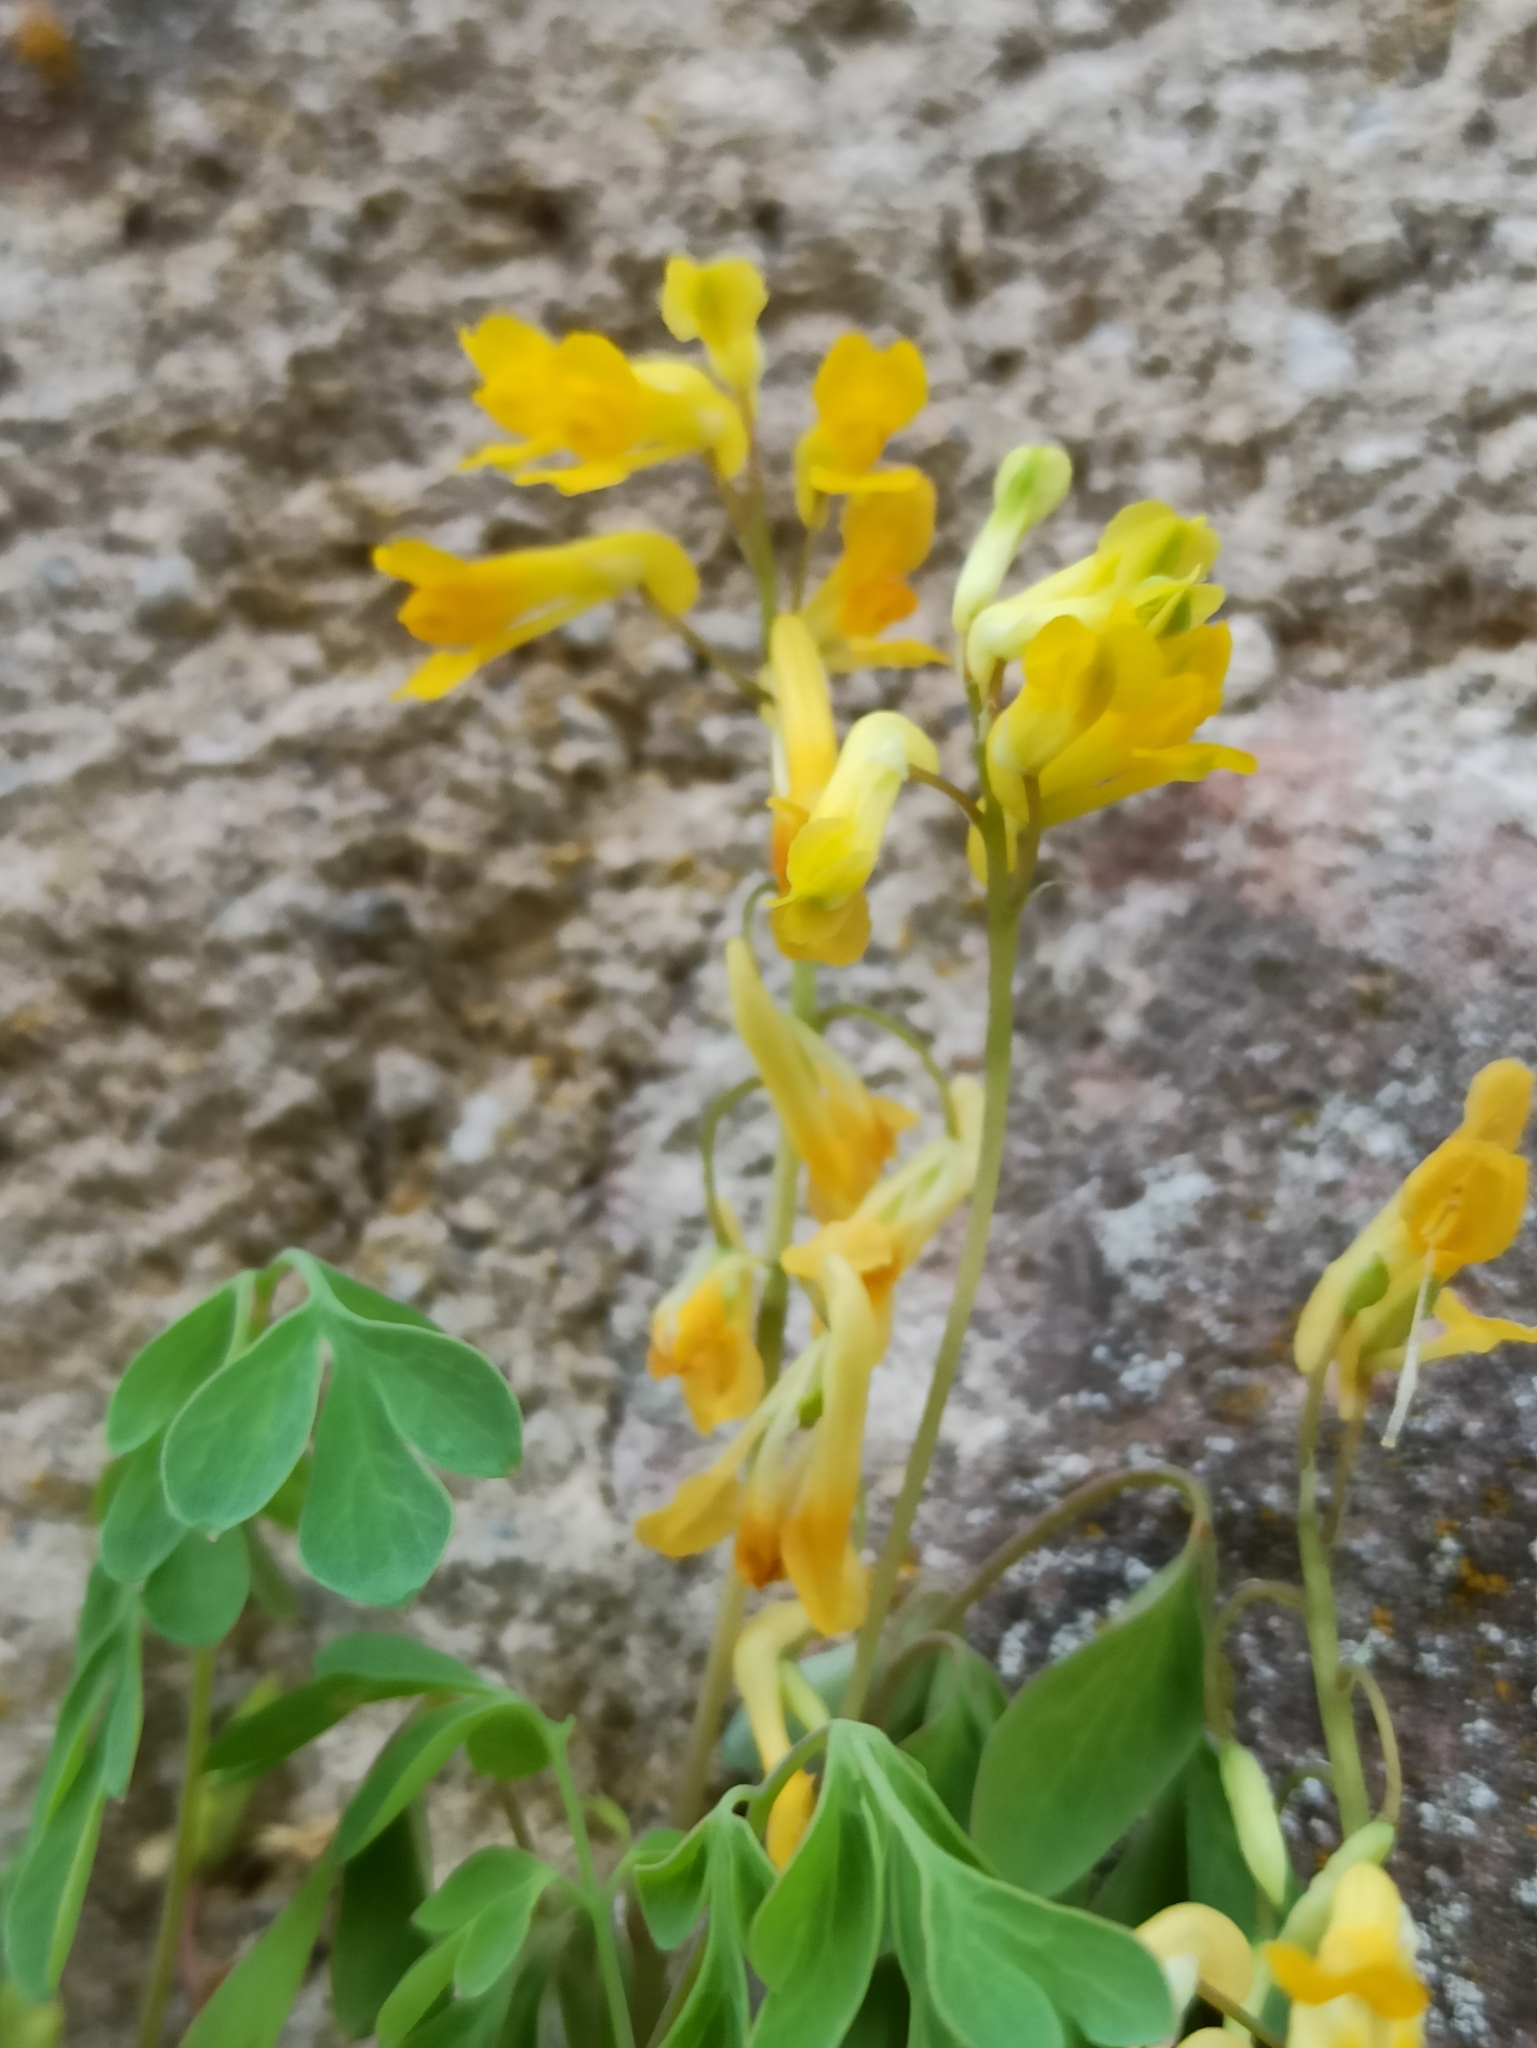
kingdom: Plantae
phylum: Tracheophyta
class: Magnoliopsida
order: Ranunculales
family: Papaveraceae
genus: Pseudofumaria
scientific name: Pseudofumaria lutea
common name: Yellow corydalis
